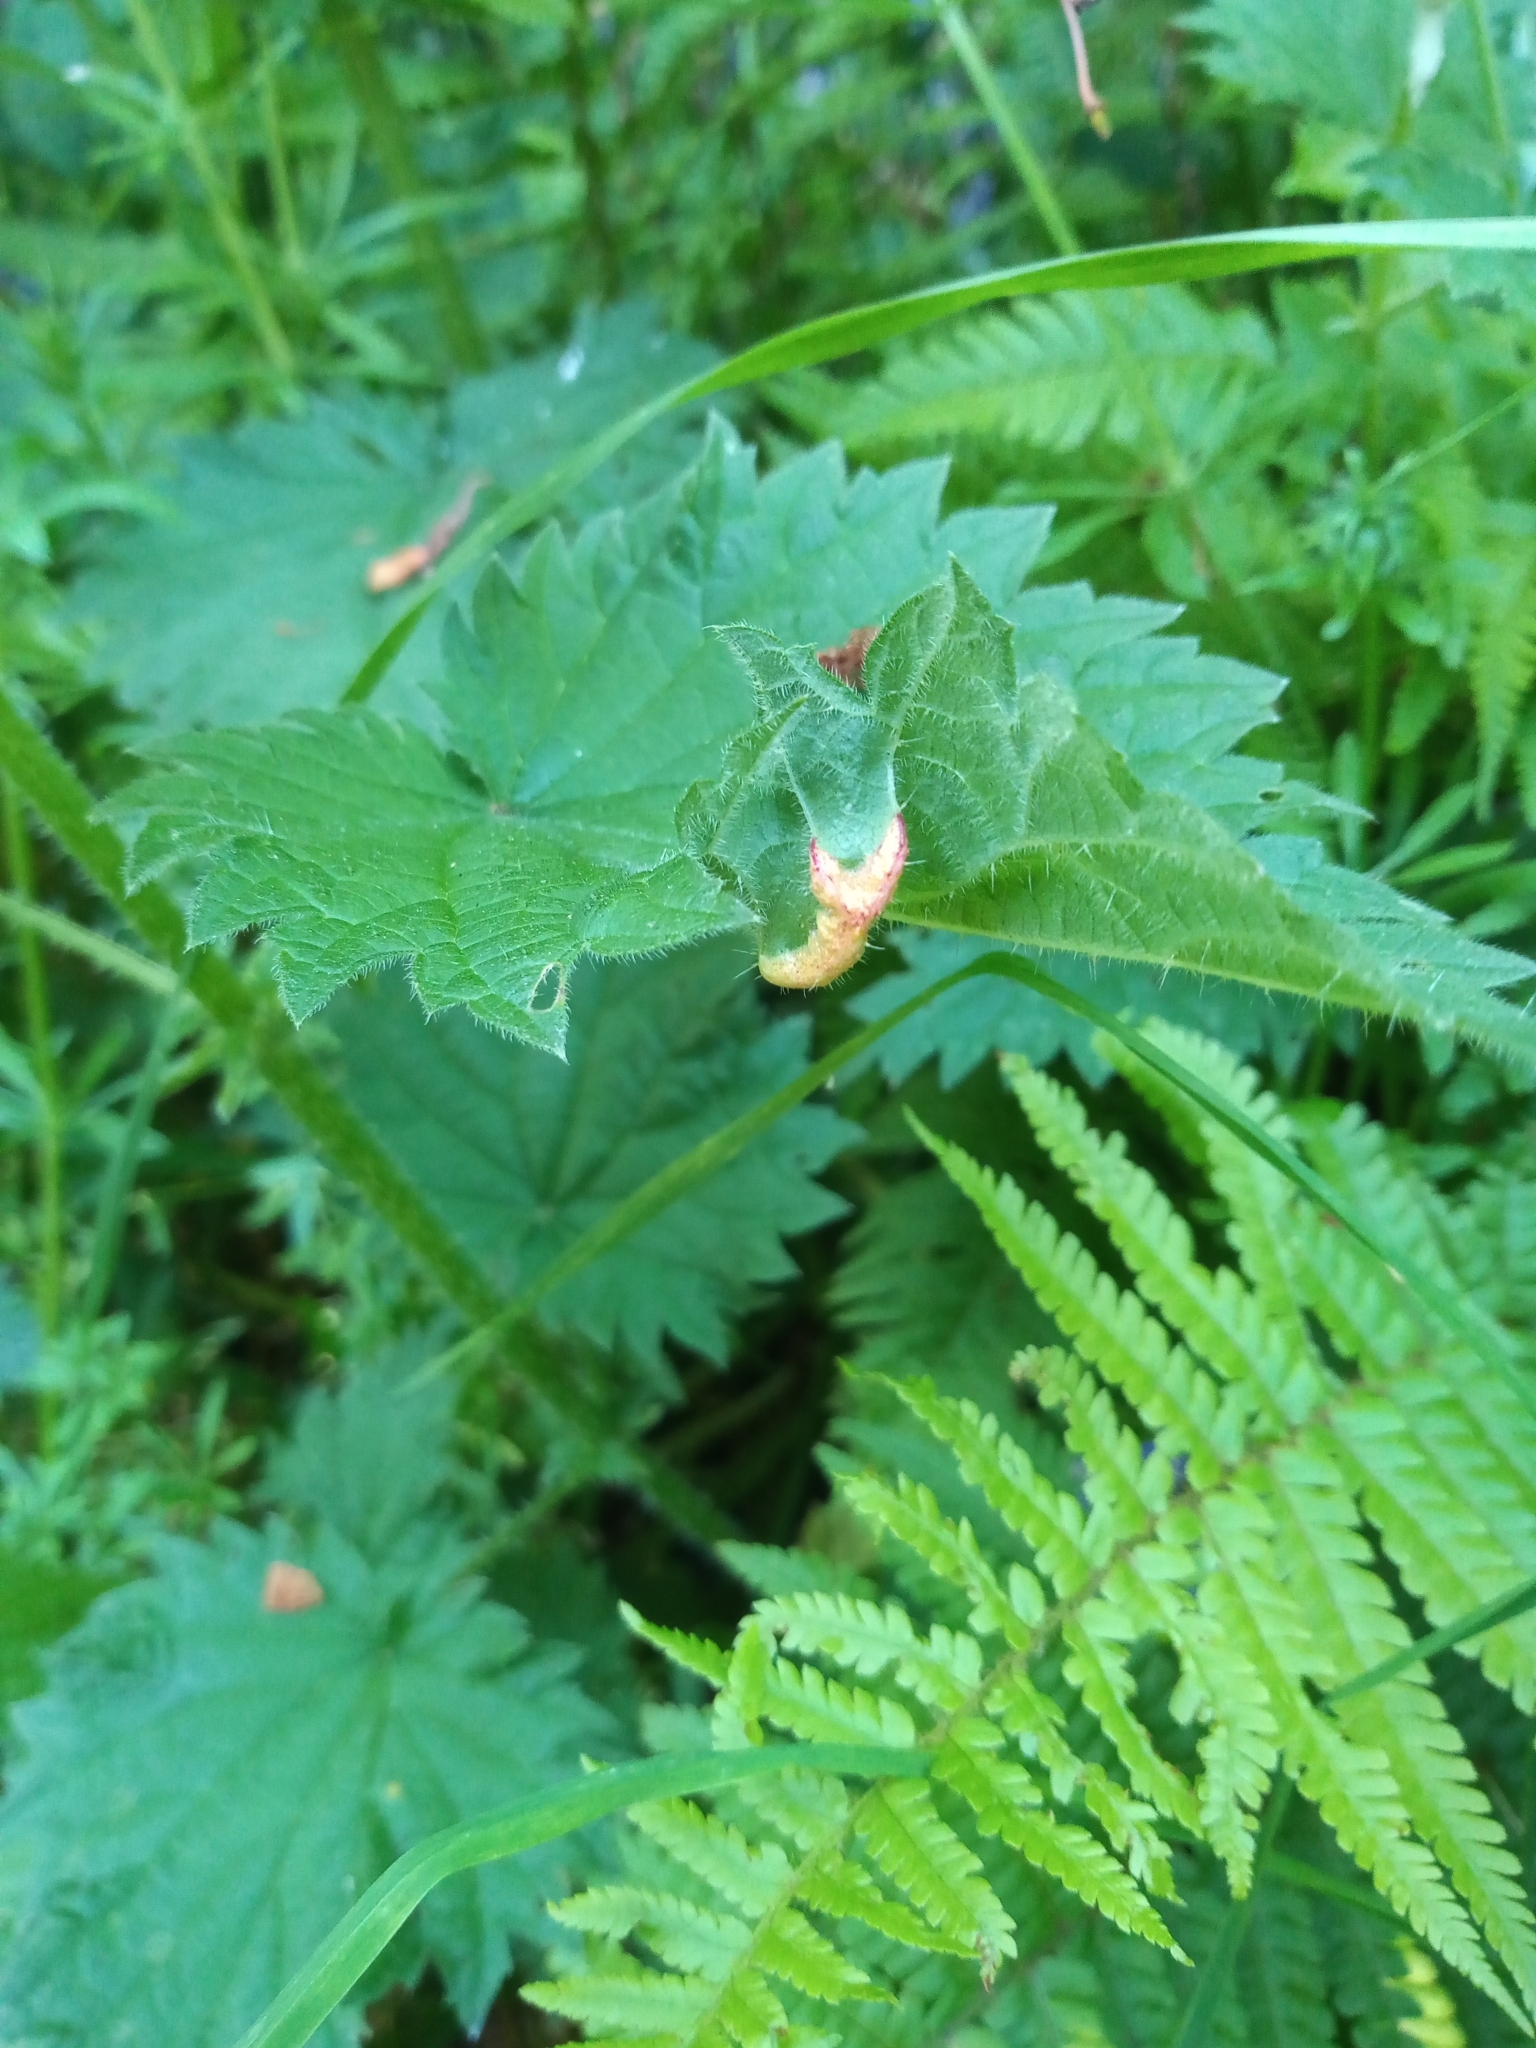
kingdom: Fungi
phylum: Basidiomycota
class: Pucciniomycetes
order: Pucciniales
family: Pucciniaceae
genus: Puccinia
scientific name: Puccinia urticata
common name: Nettle clustercup rust fungus
